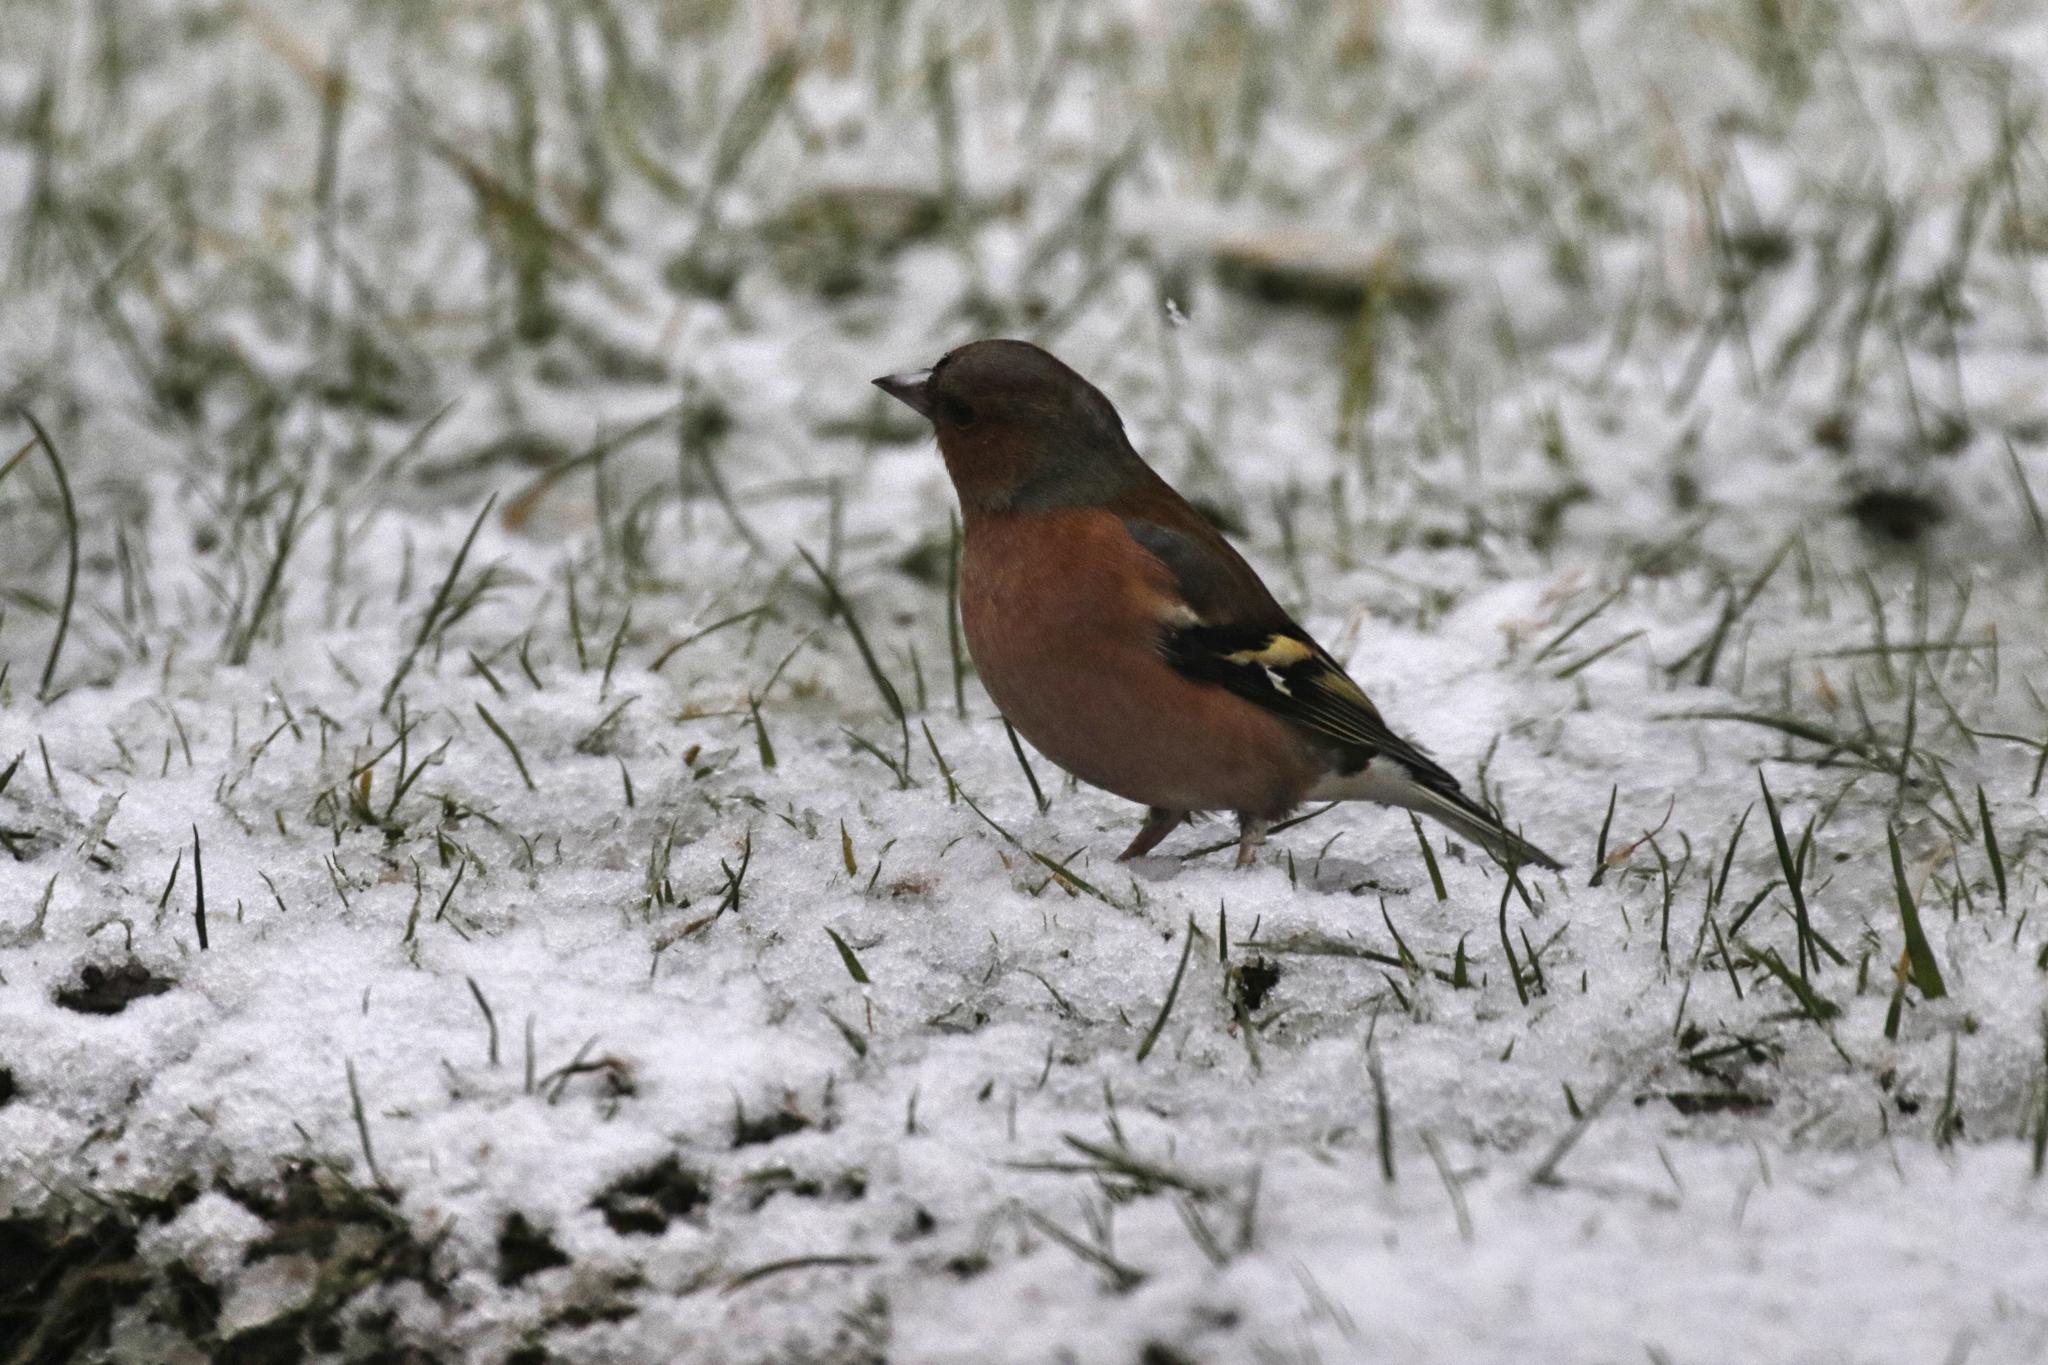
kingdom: Animalia
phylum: Chordata
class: Aves
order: Passeriformes
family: Fringillidae
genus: Fringilla
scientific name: Fringilla coelebs
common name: Common chaffinch
